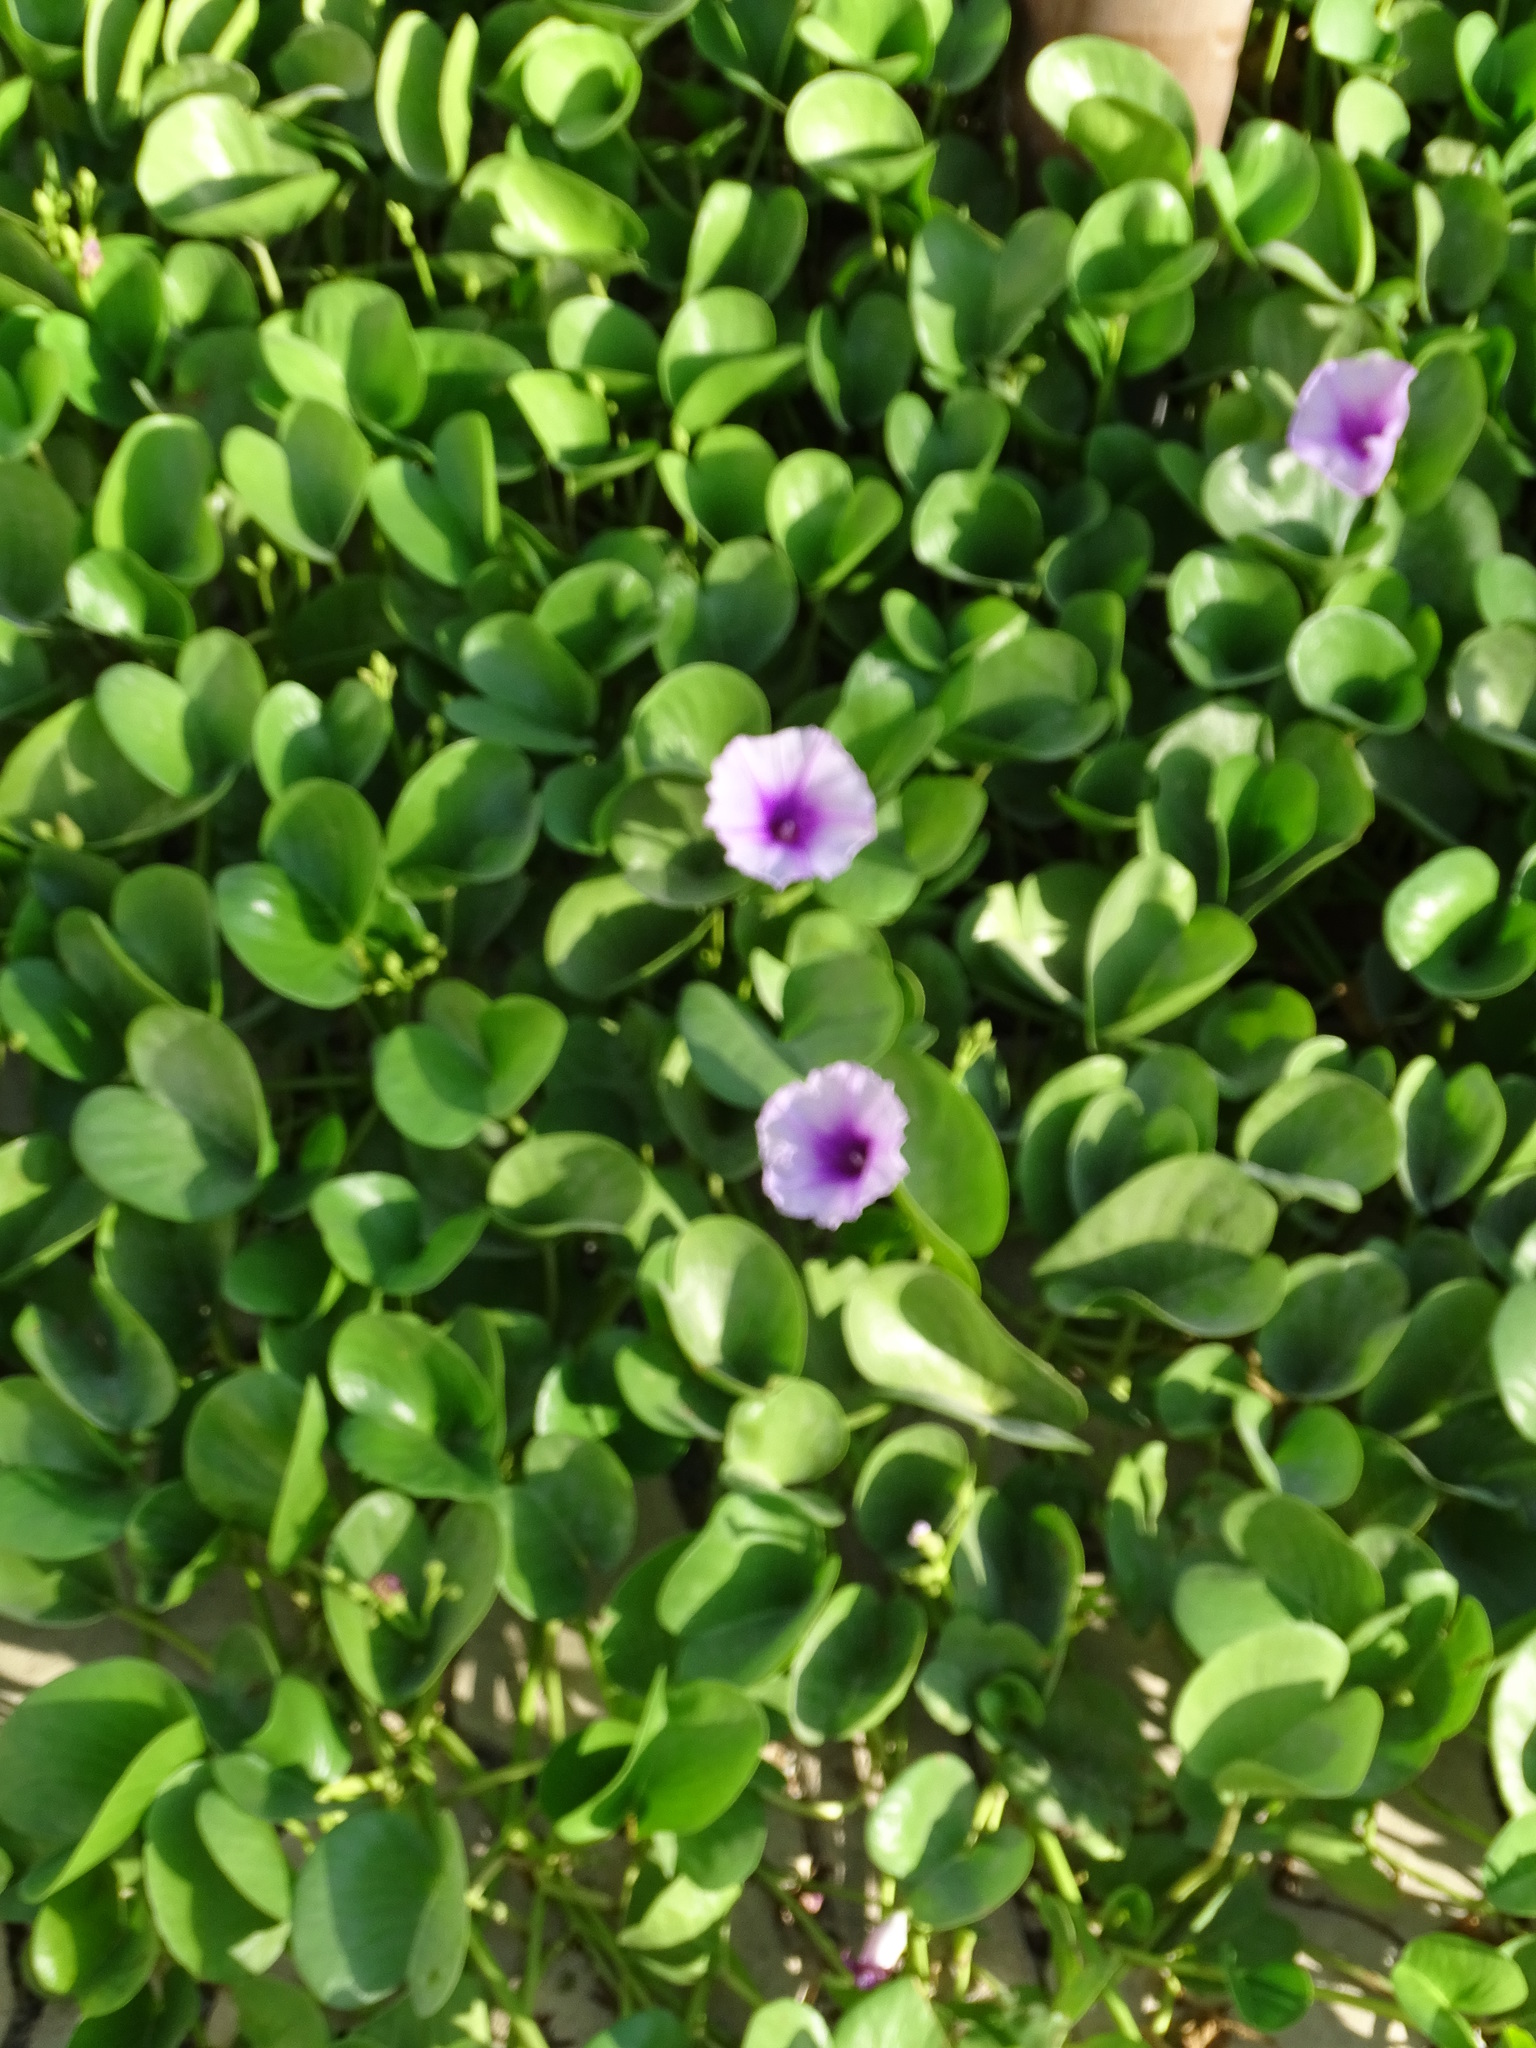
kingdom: Plantae
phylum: Tracheophyta
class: Magnoliopsida
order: Solanales
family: Convolvulaceae
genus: Ipomoea
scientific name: Ipomoea pes-caprae
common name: Beach morning glory
